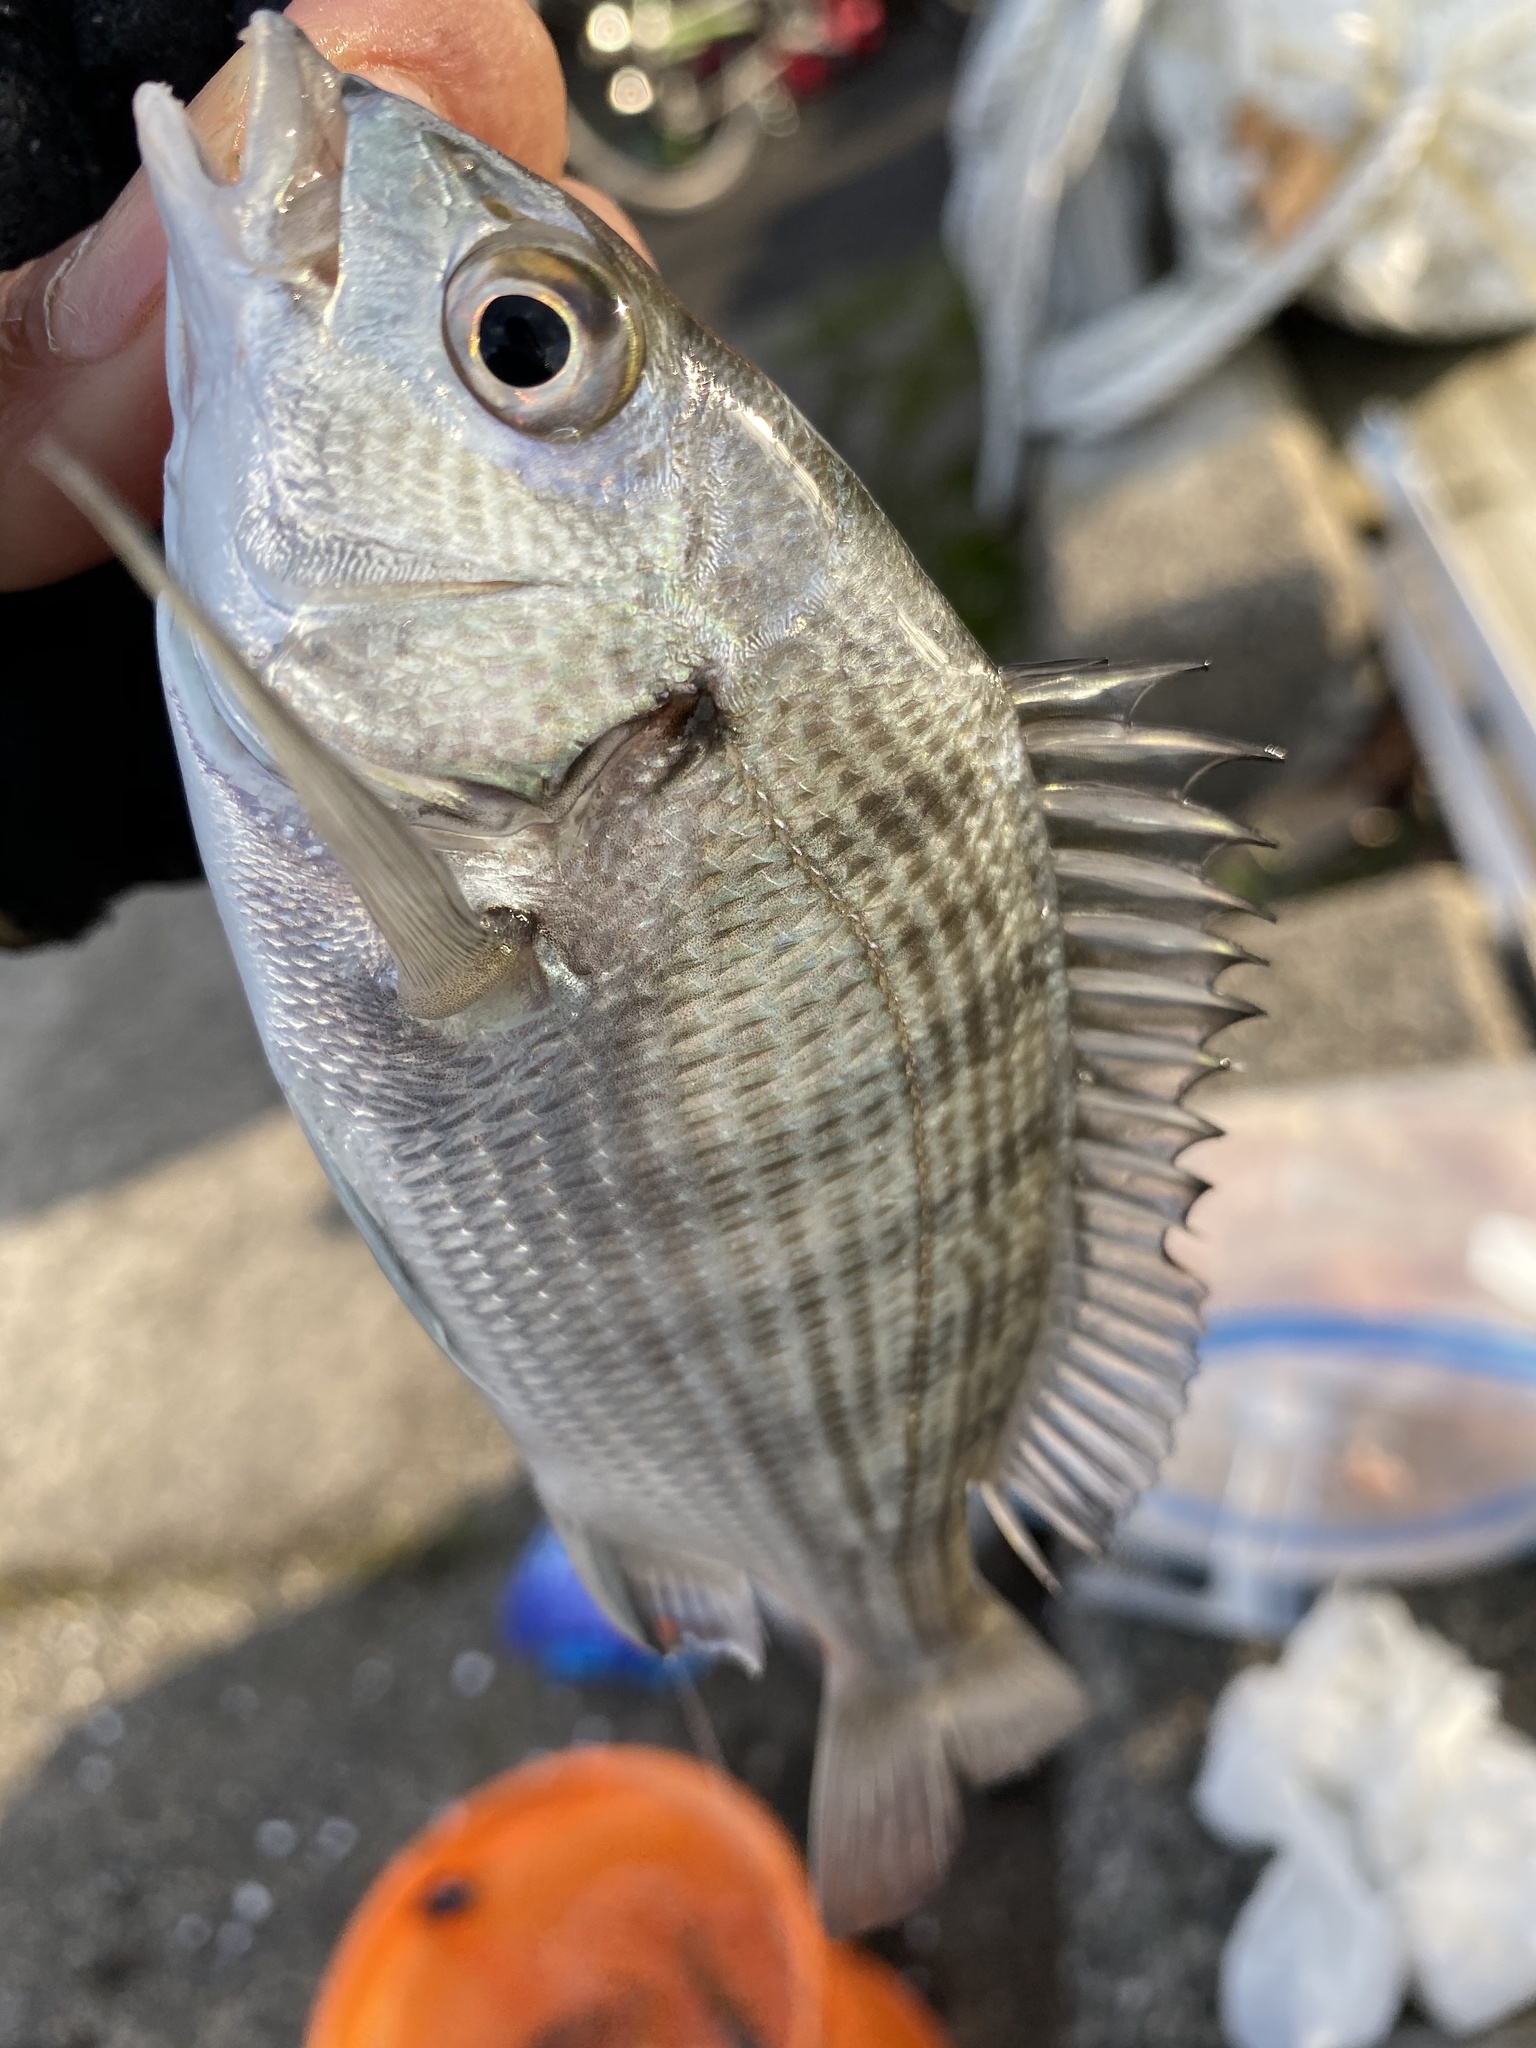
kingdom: Animalia
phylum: Chordata
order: Perciformes
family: Sparidae
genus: Acanthopagrus
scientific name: Acanthopagrus schlegelii
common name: Blackhead seabream
